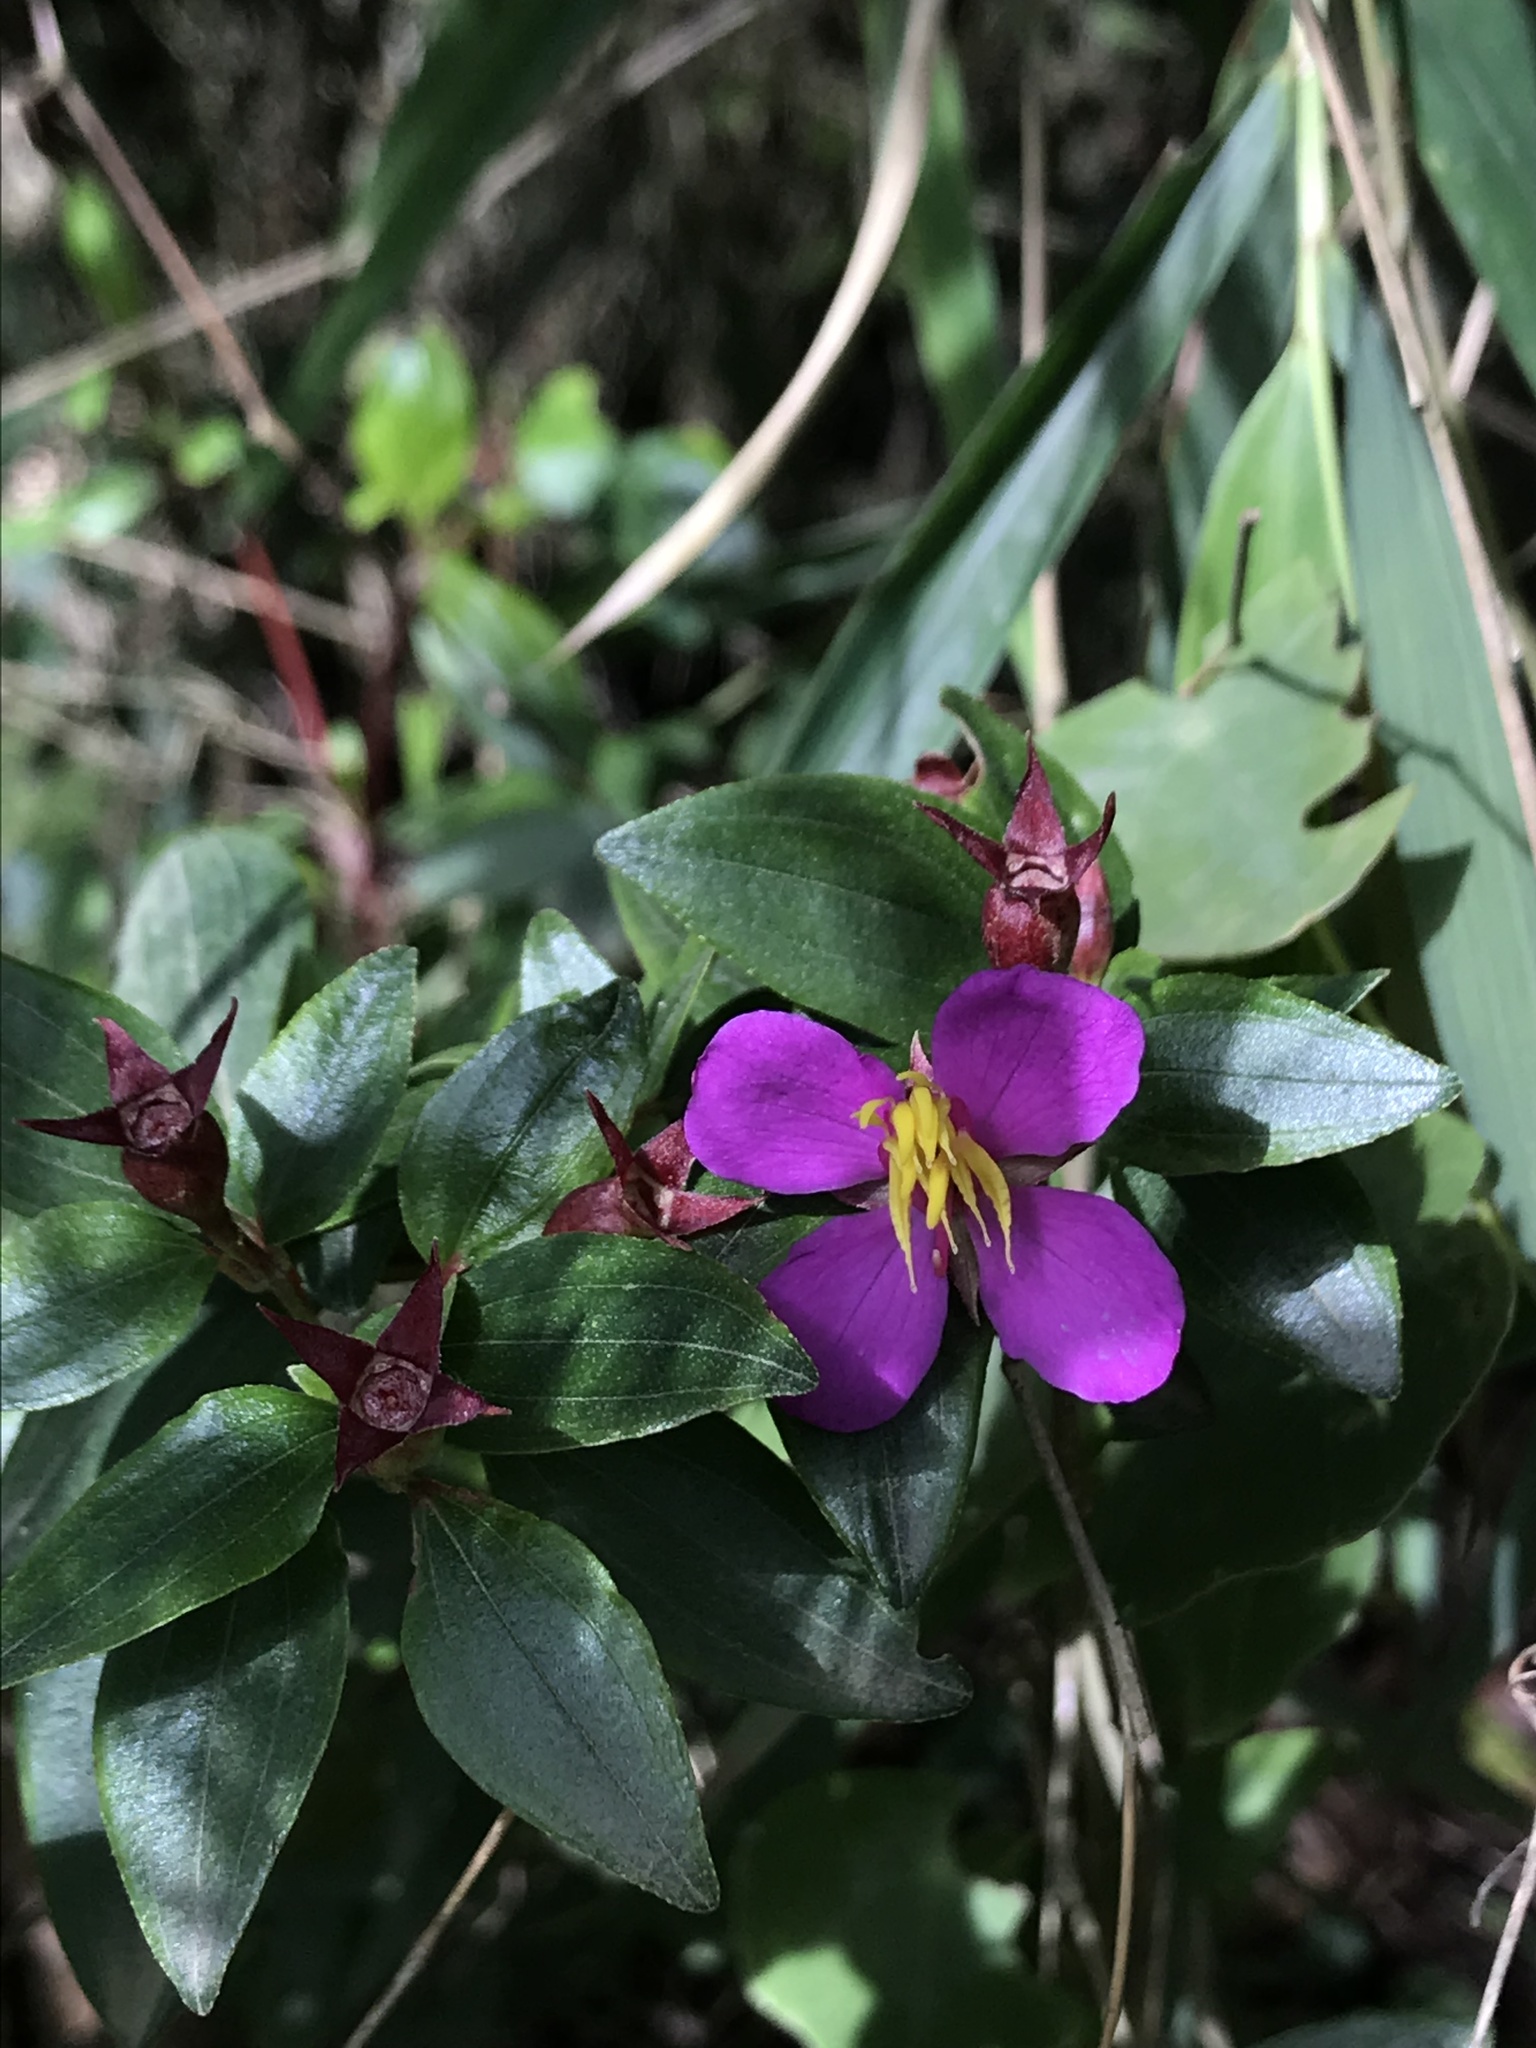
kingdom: Plantae
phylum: Tracheophyta
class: Magnoliopsida
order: Myrtales
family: Melastomataceae
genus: Monochaetum
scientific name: Monochaetum myrtoideum
